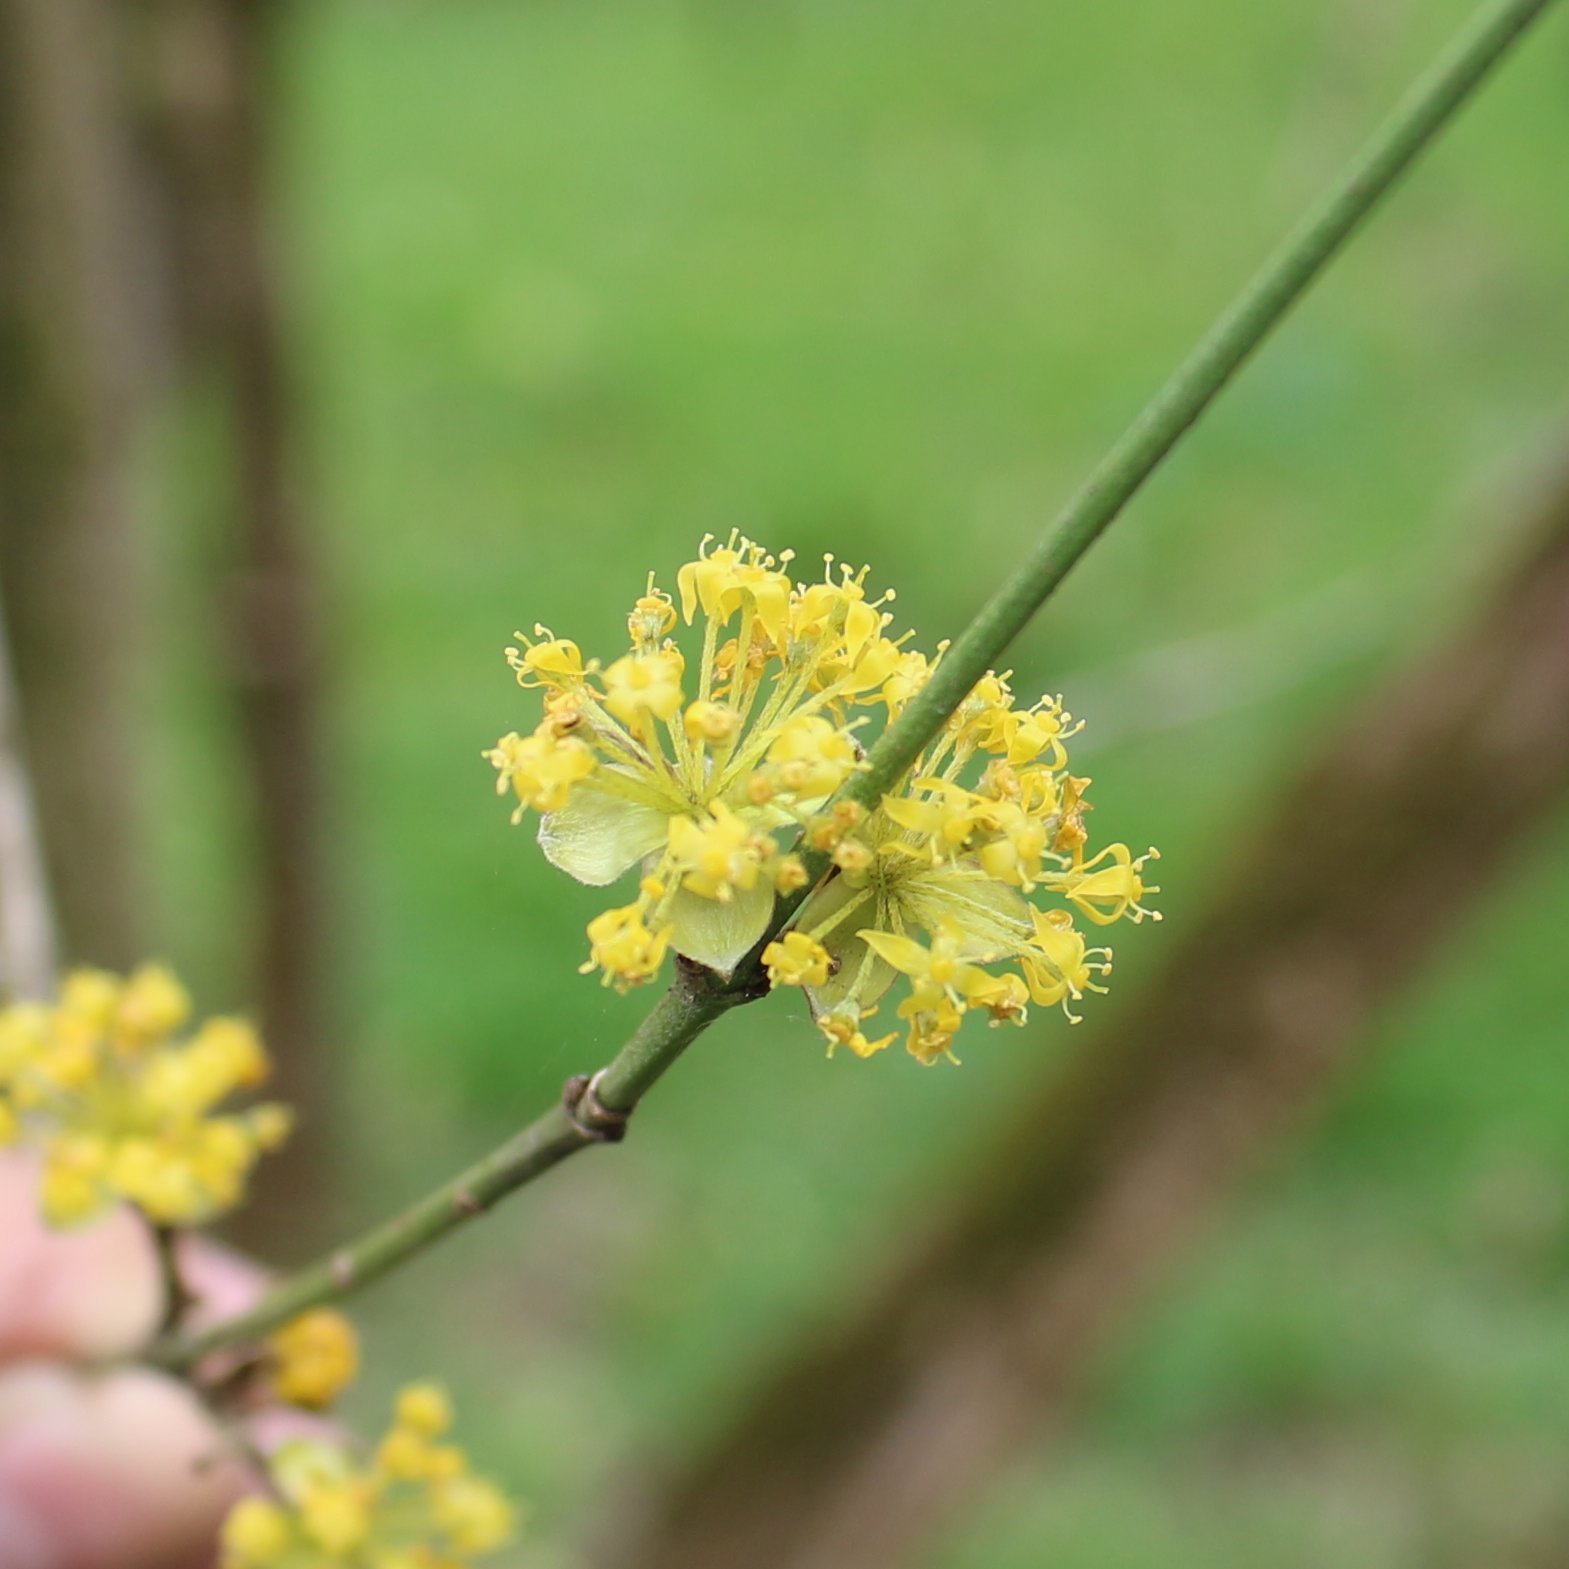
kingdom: Plantae
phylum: Tracheophyta
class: Magnoliopsida
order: Cornales
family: Cornaceae
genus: Cornus
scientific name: Cornus mas
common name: Cornelian-cherry
